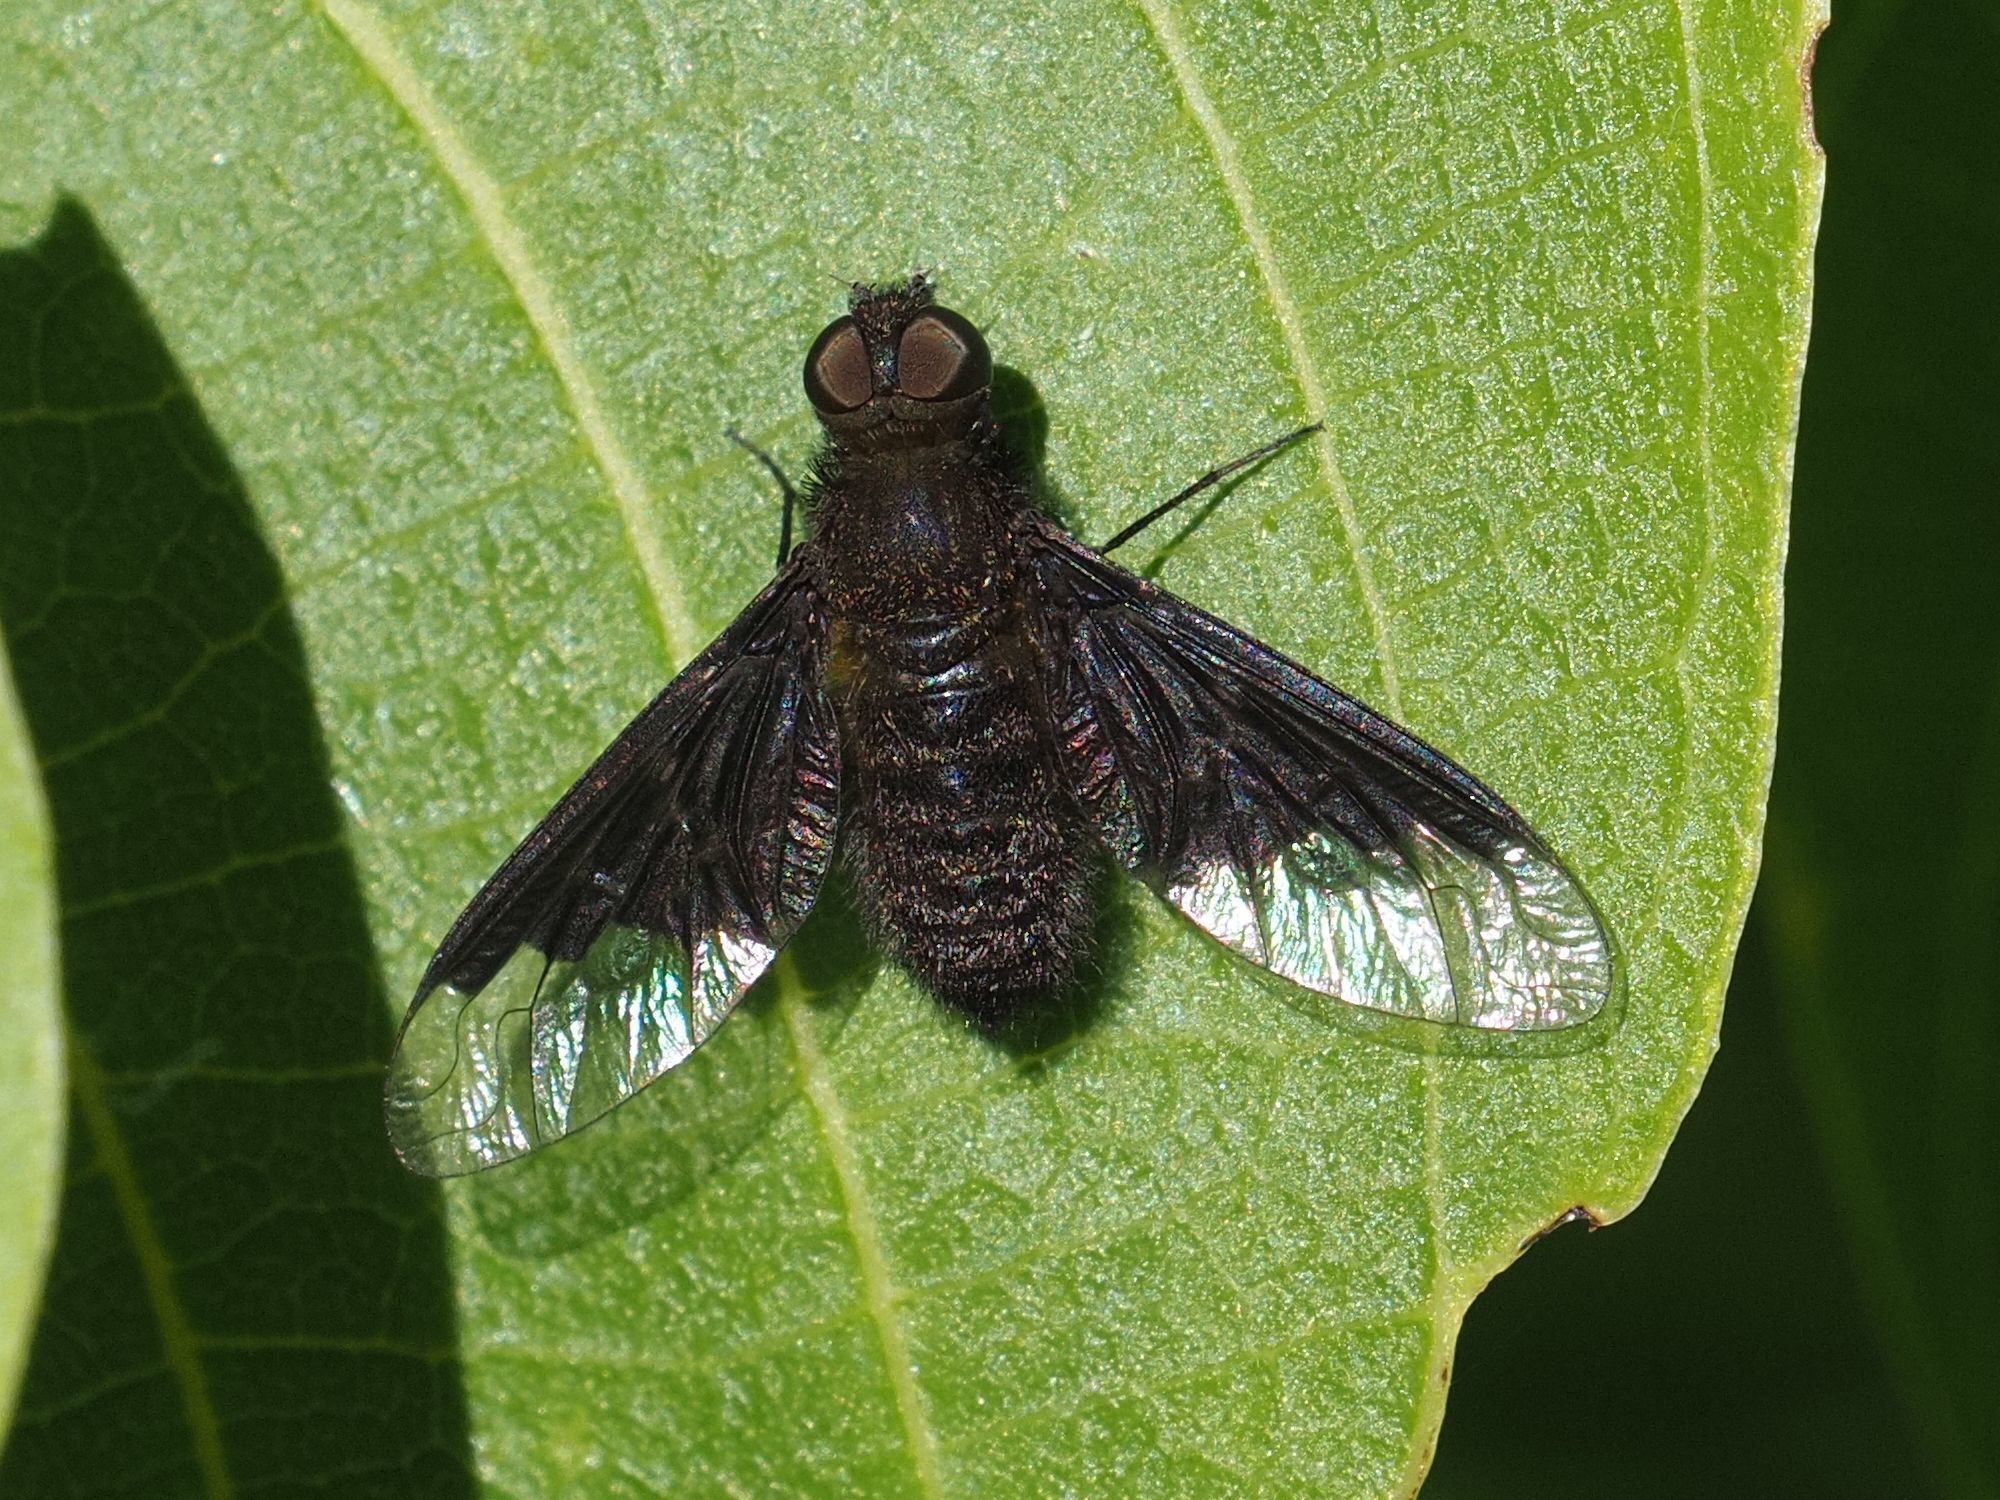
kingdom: Animalia
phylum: Arthropoda
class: Insecta
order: Diptera
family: Bombyliidae
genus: Hemipenthes
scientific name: Hemipenthes morio
